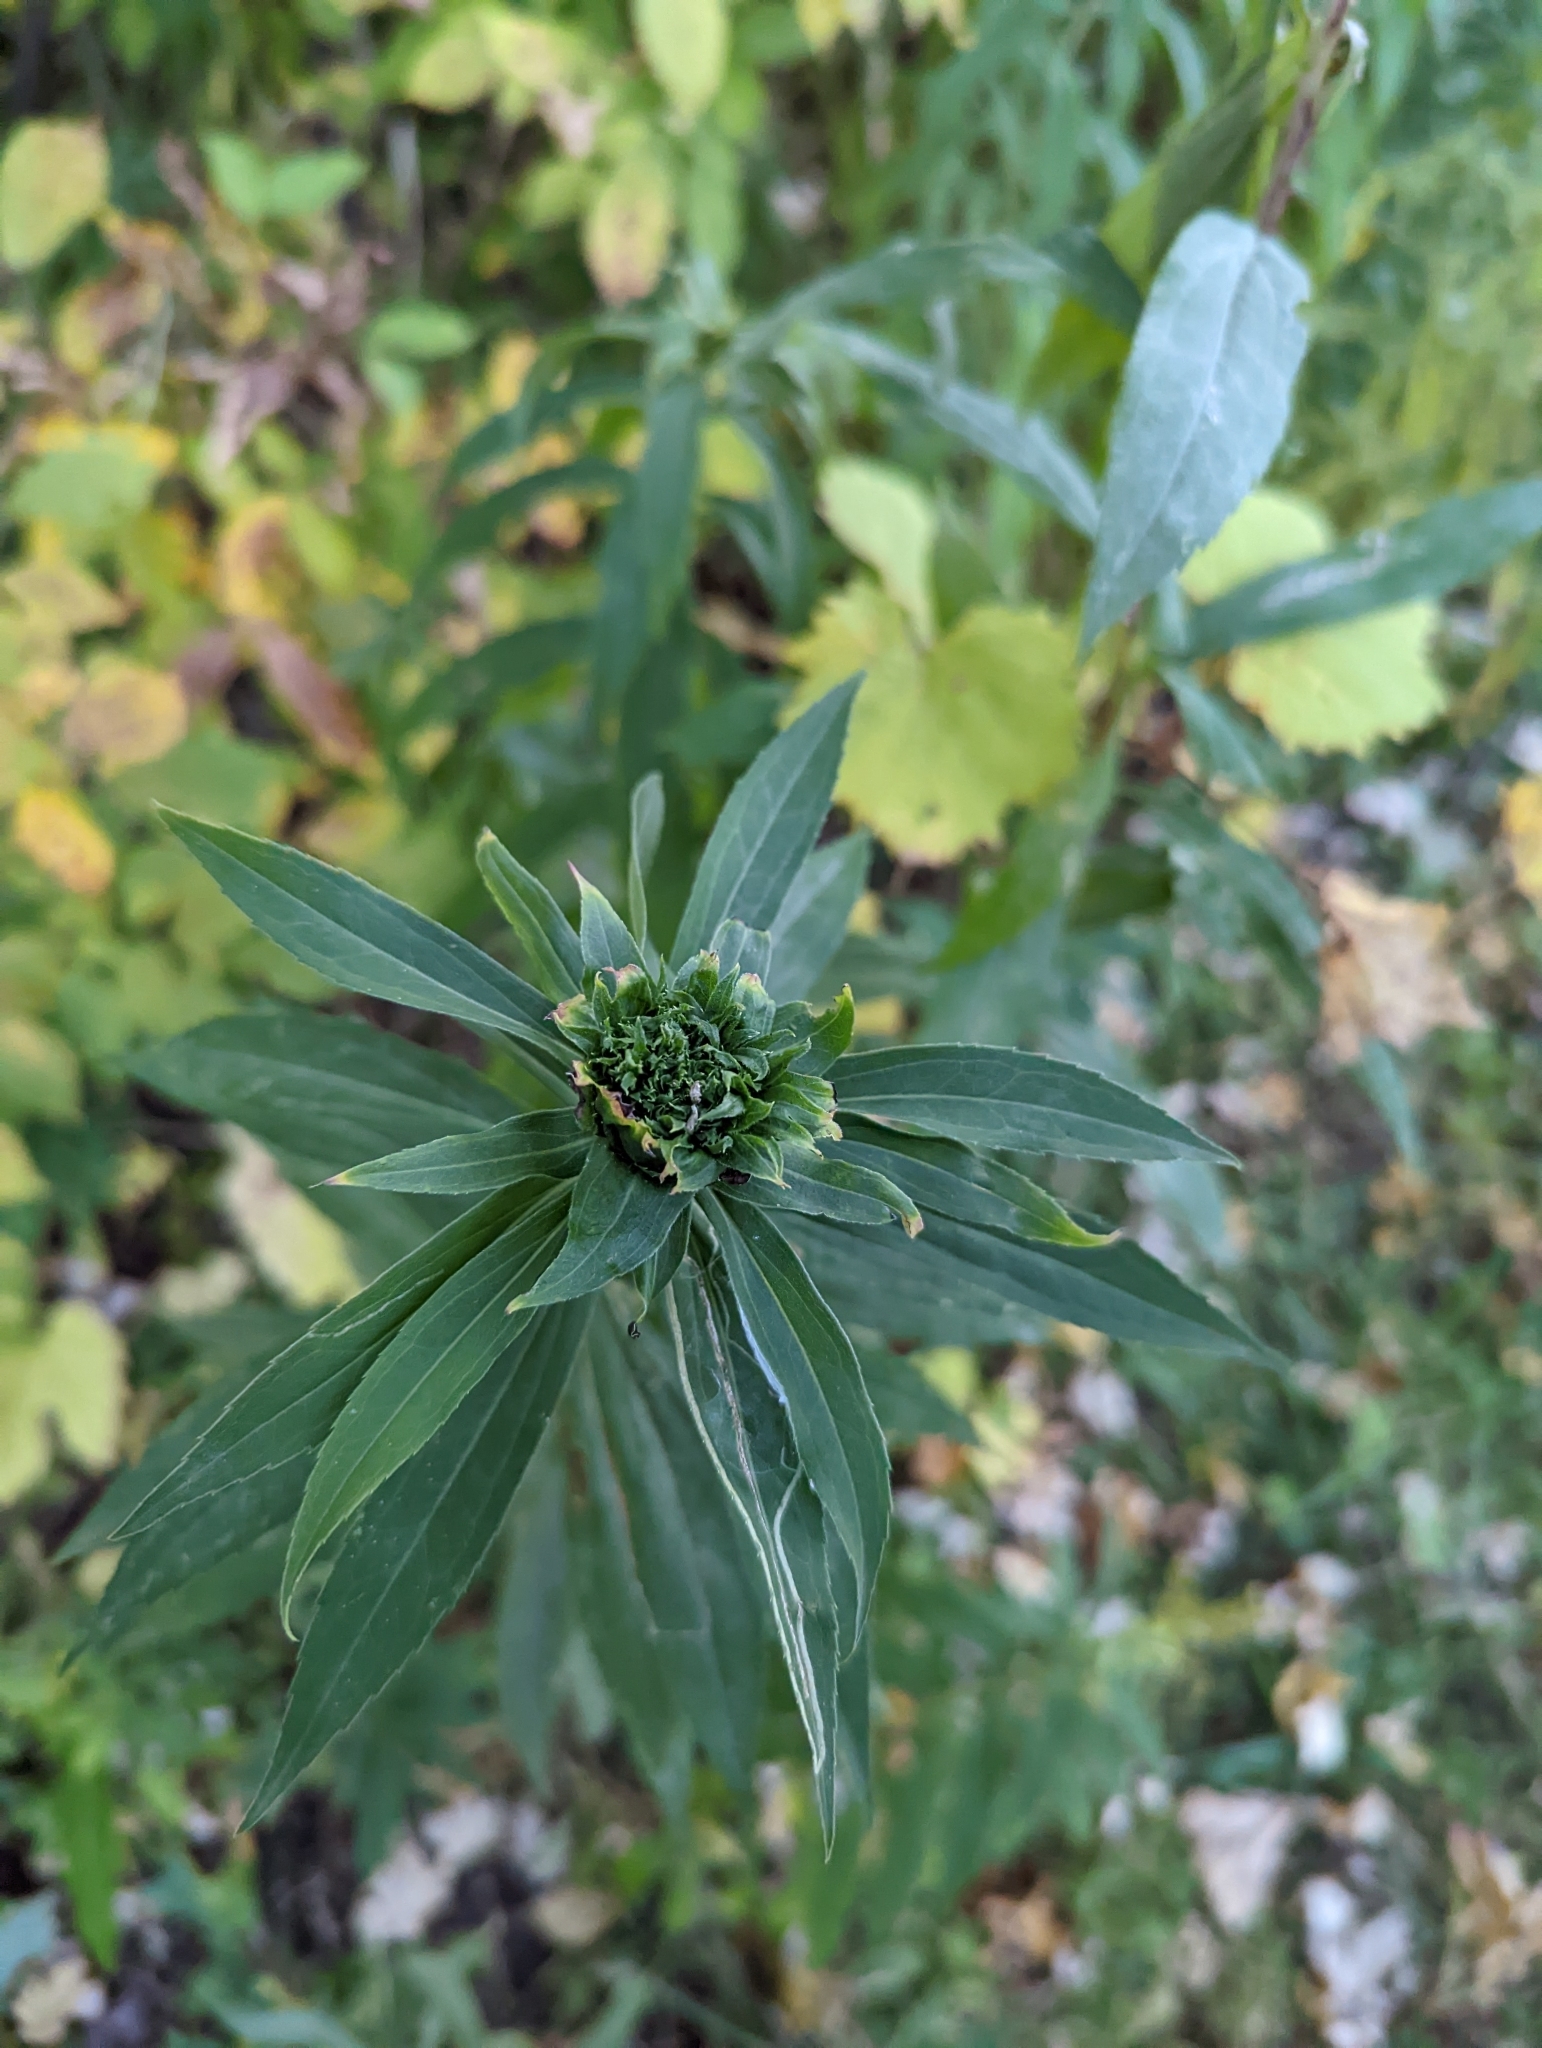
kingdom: Animalia
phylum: Arthropoda
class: Insecta
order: Diptera
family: Cecidomyiidae
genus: Rhopalomyia
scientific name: Rhopalomyia capitata
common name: Giant goldenrod bunch gall midge
